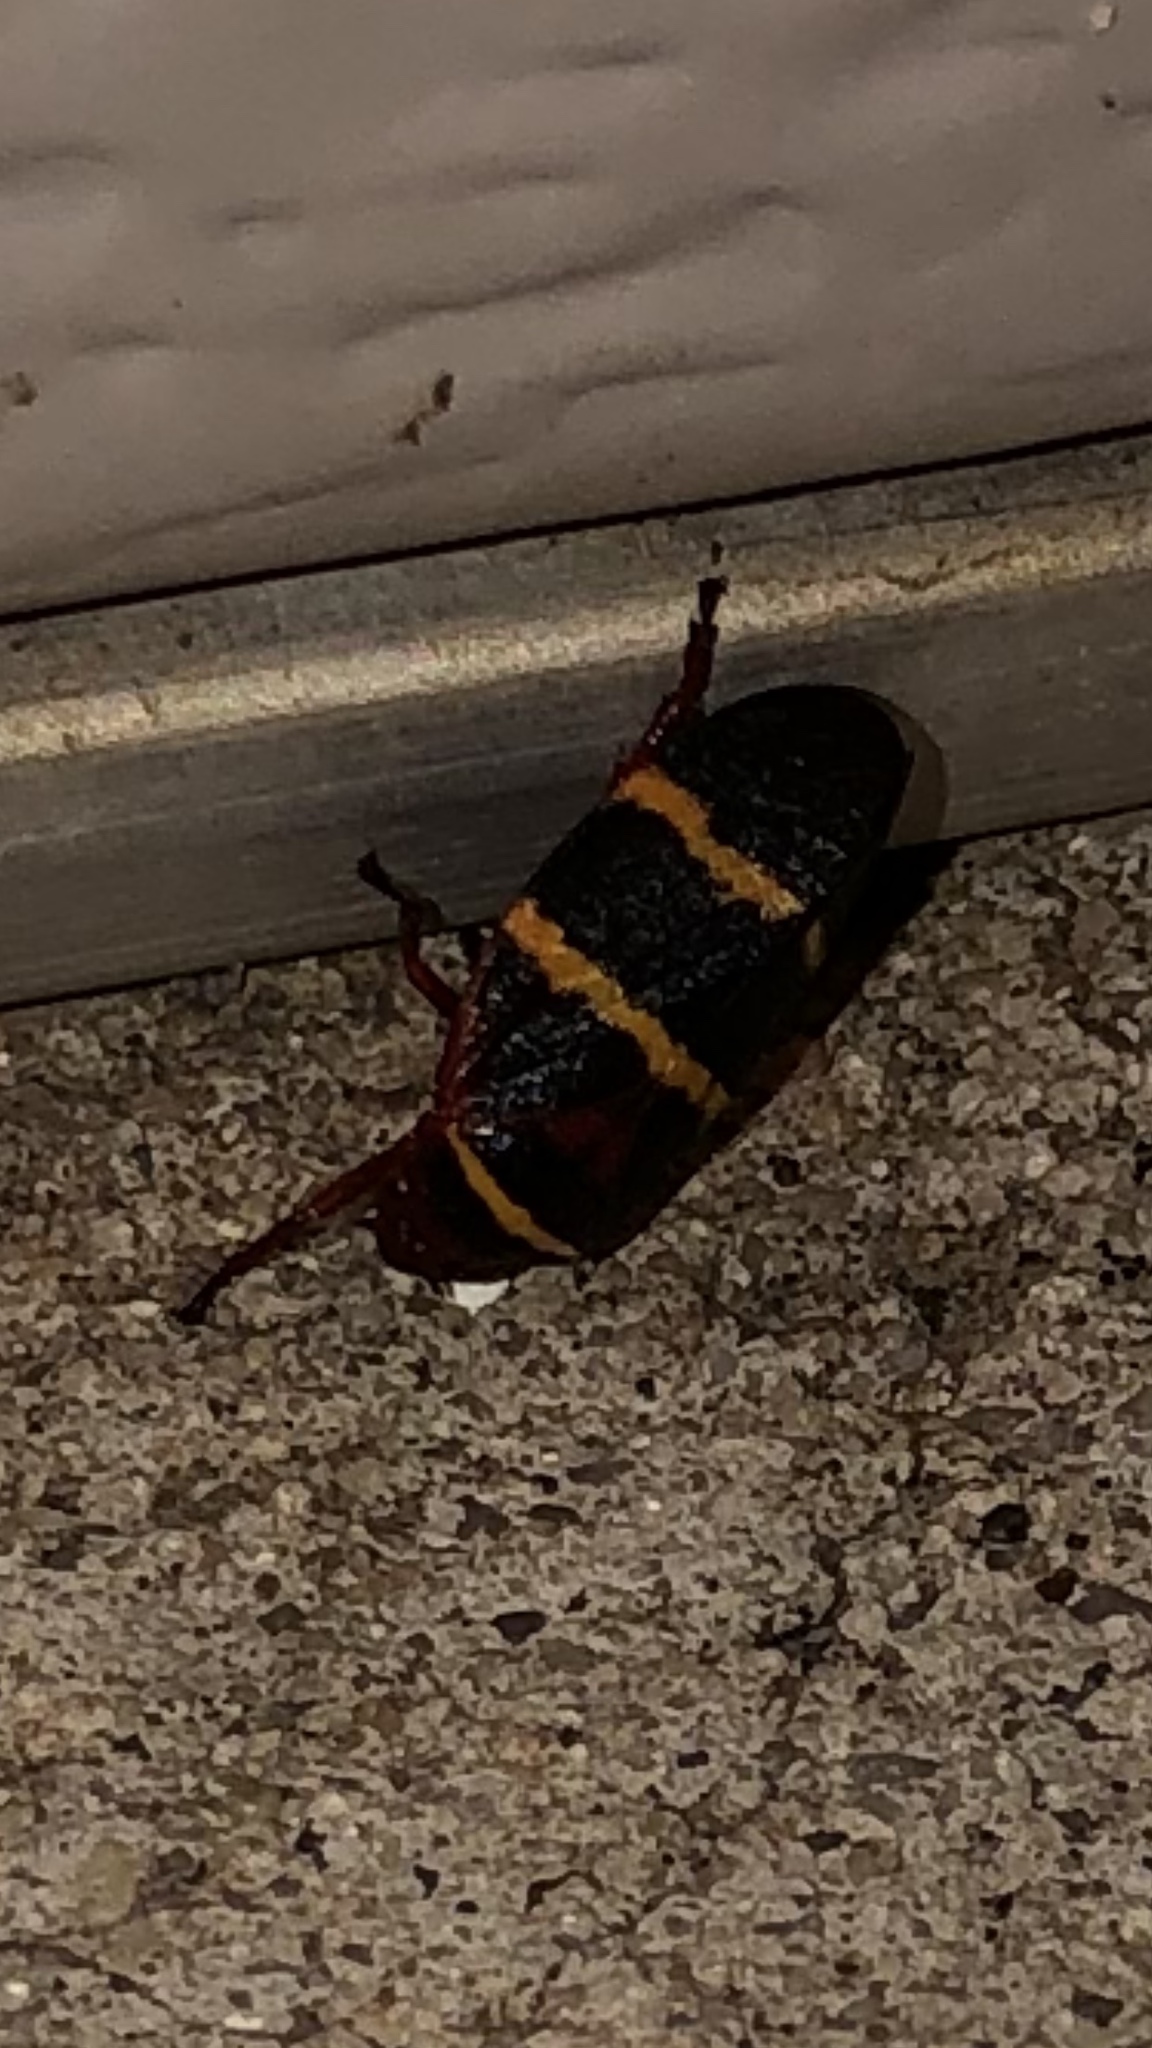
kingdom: Animalia
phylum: Arthropoda
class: Insecta
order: Hemiptera
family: Cercopidae
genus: Prosapia
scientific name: Prosapia bicincta
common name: Twolined spittlebug
